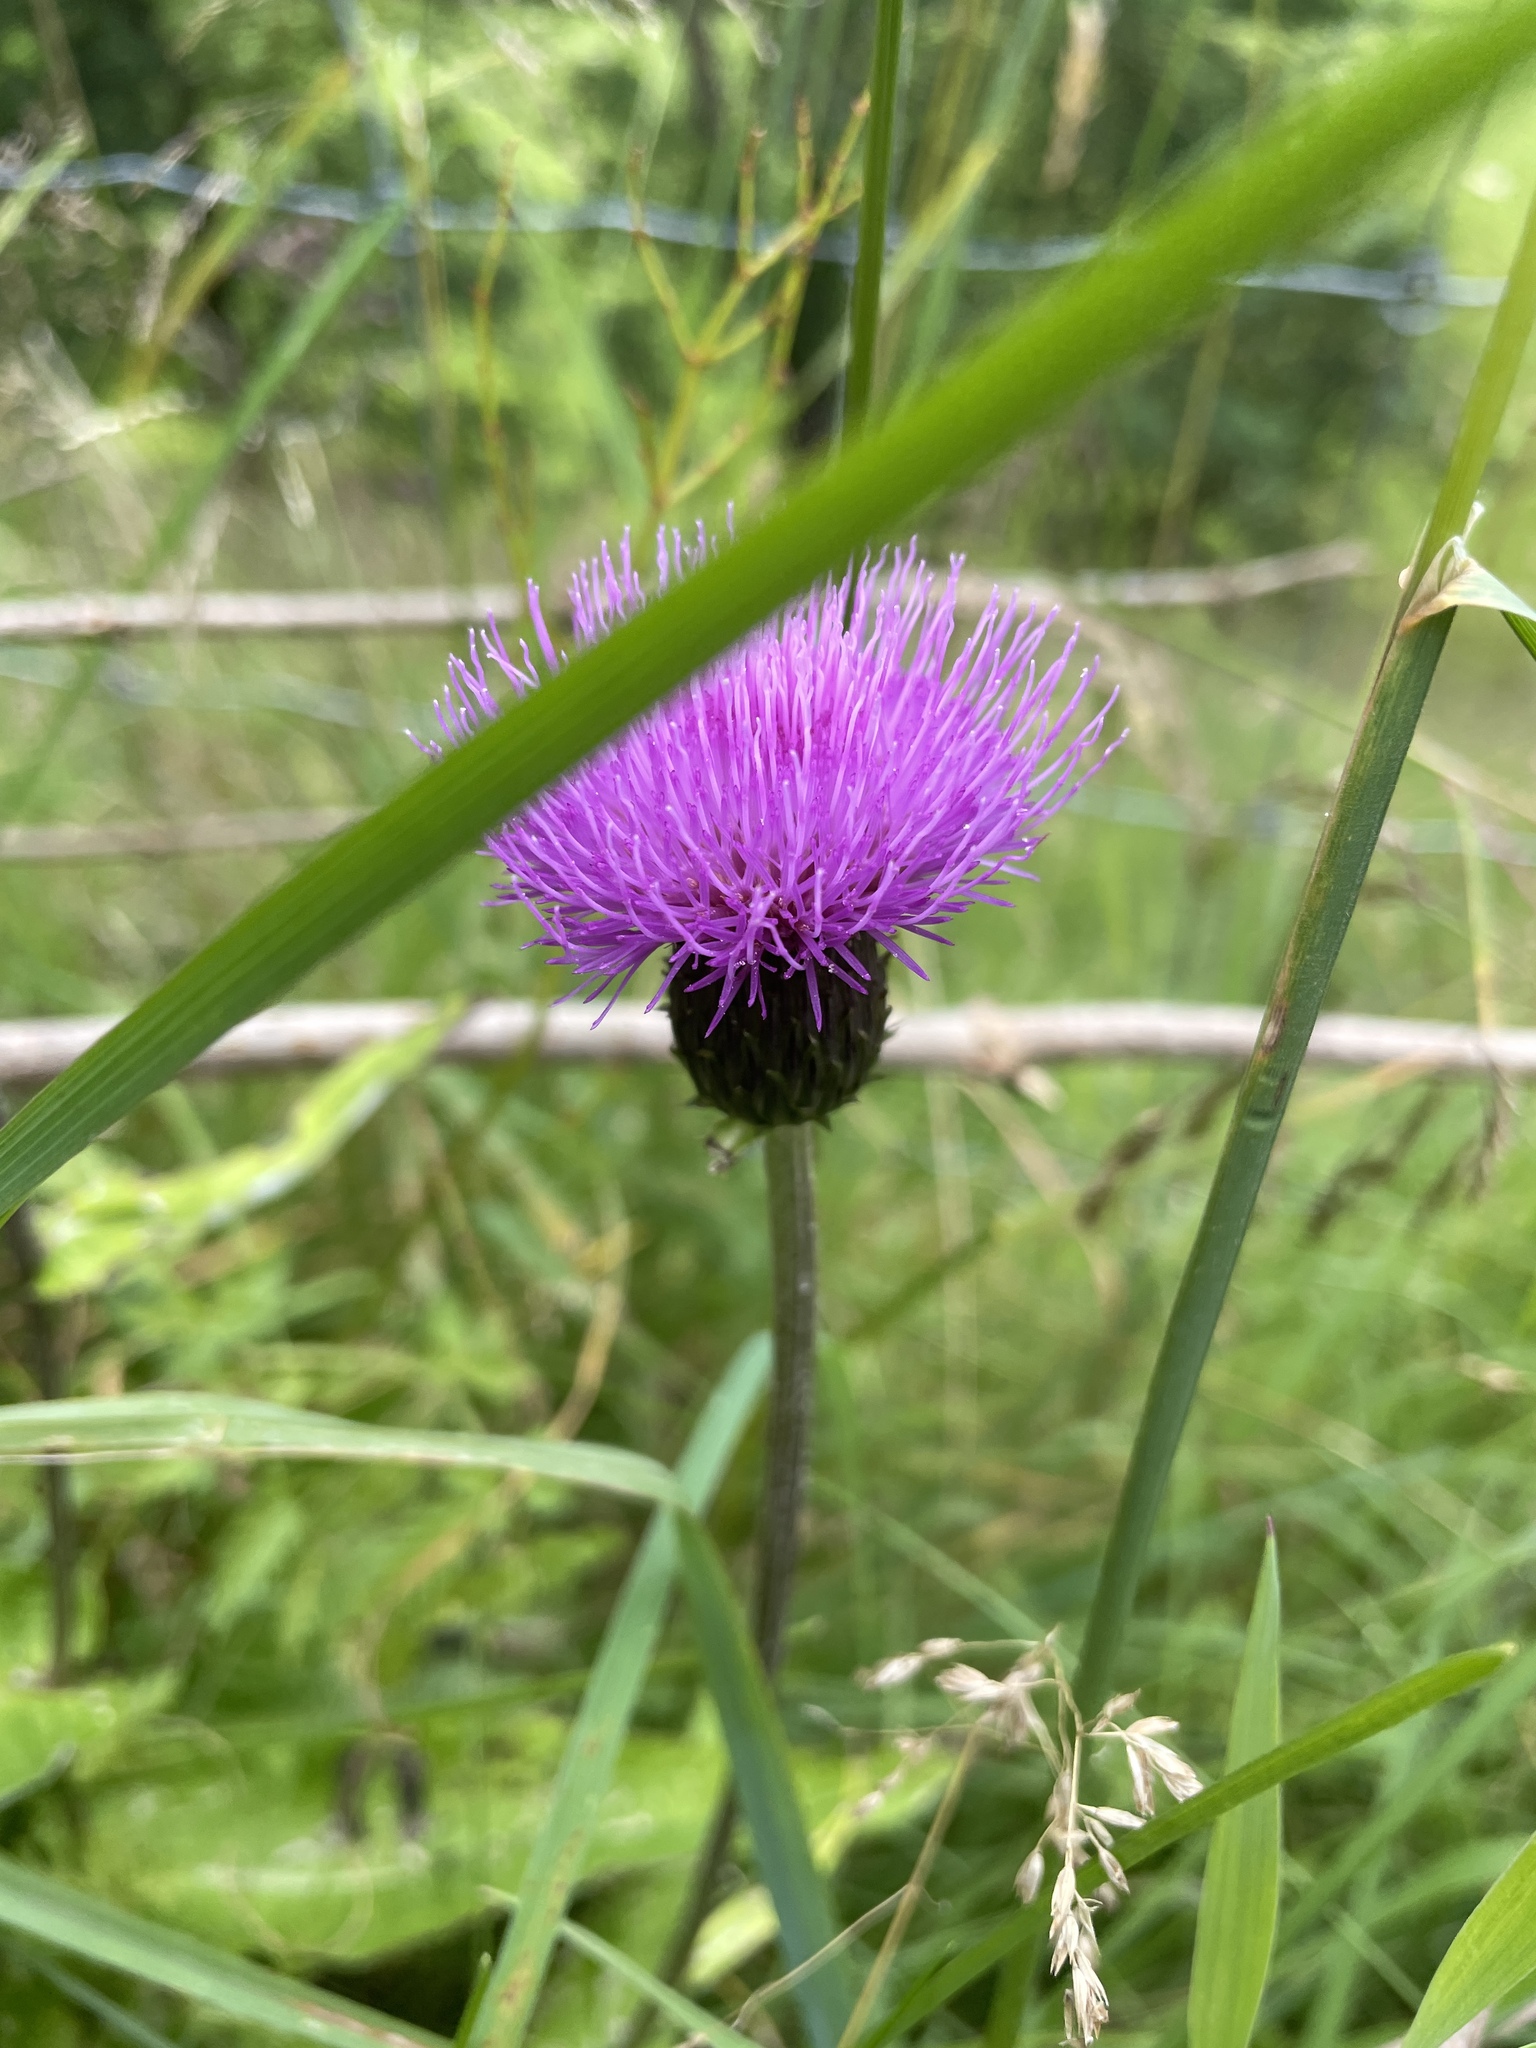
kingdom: Plantae
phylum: Tracheophyta
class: Magnoliopsida
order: Asterales
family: Asteraceae
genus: Cirsium
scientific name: Cirsium heterophyllum
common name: Melancholy thistle
